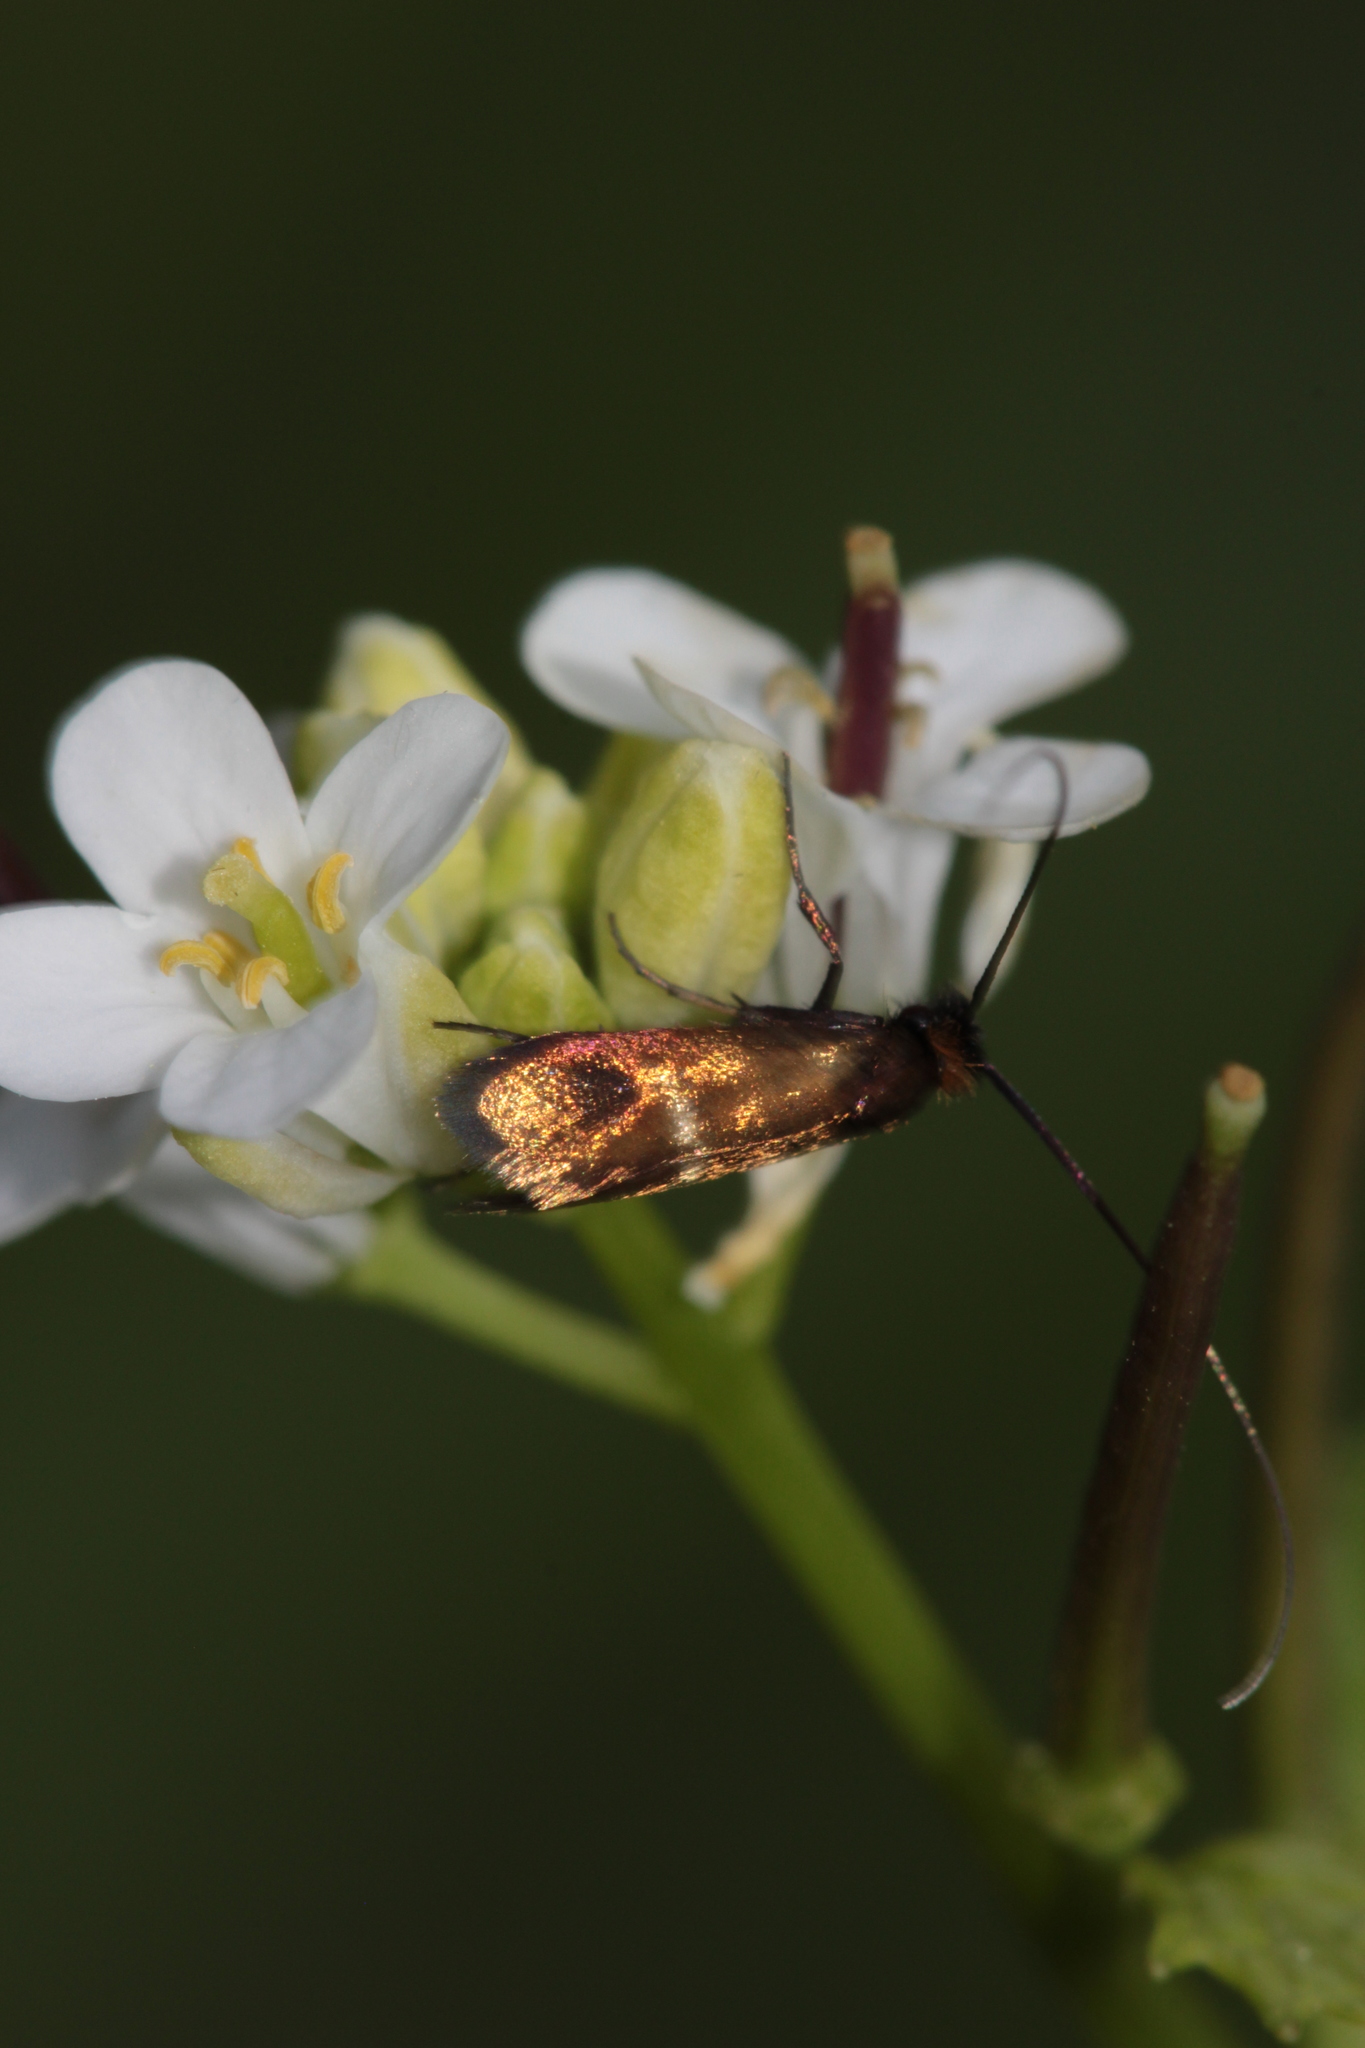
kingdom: Animalia
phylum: Arthropoda
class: Insecta
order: Lepidoptera
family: Adelidae
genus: Cauchas
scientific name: Cauchas rufimitrella
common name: Meadow long-horn
